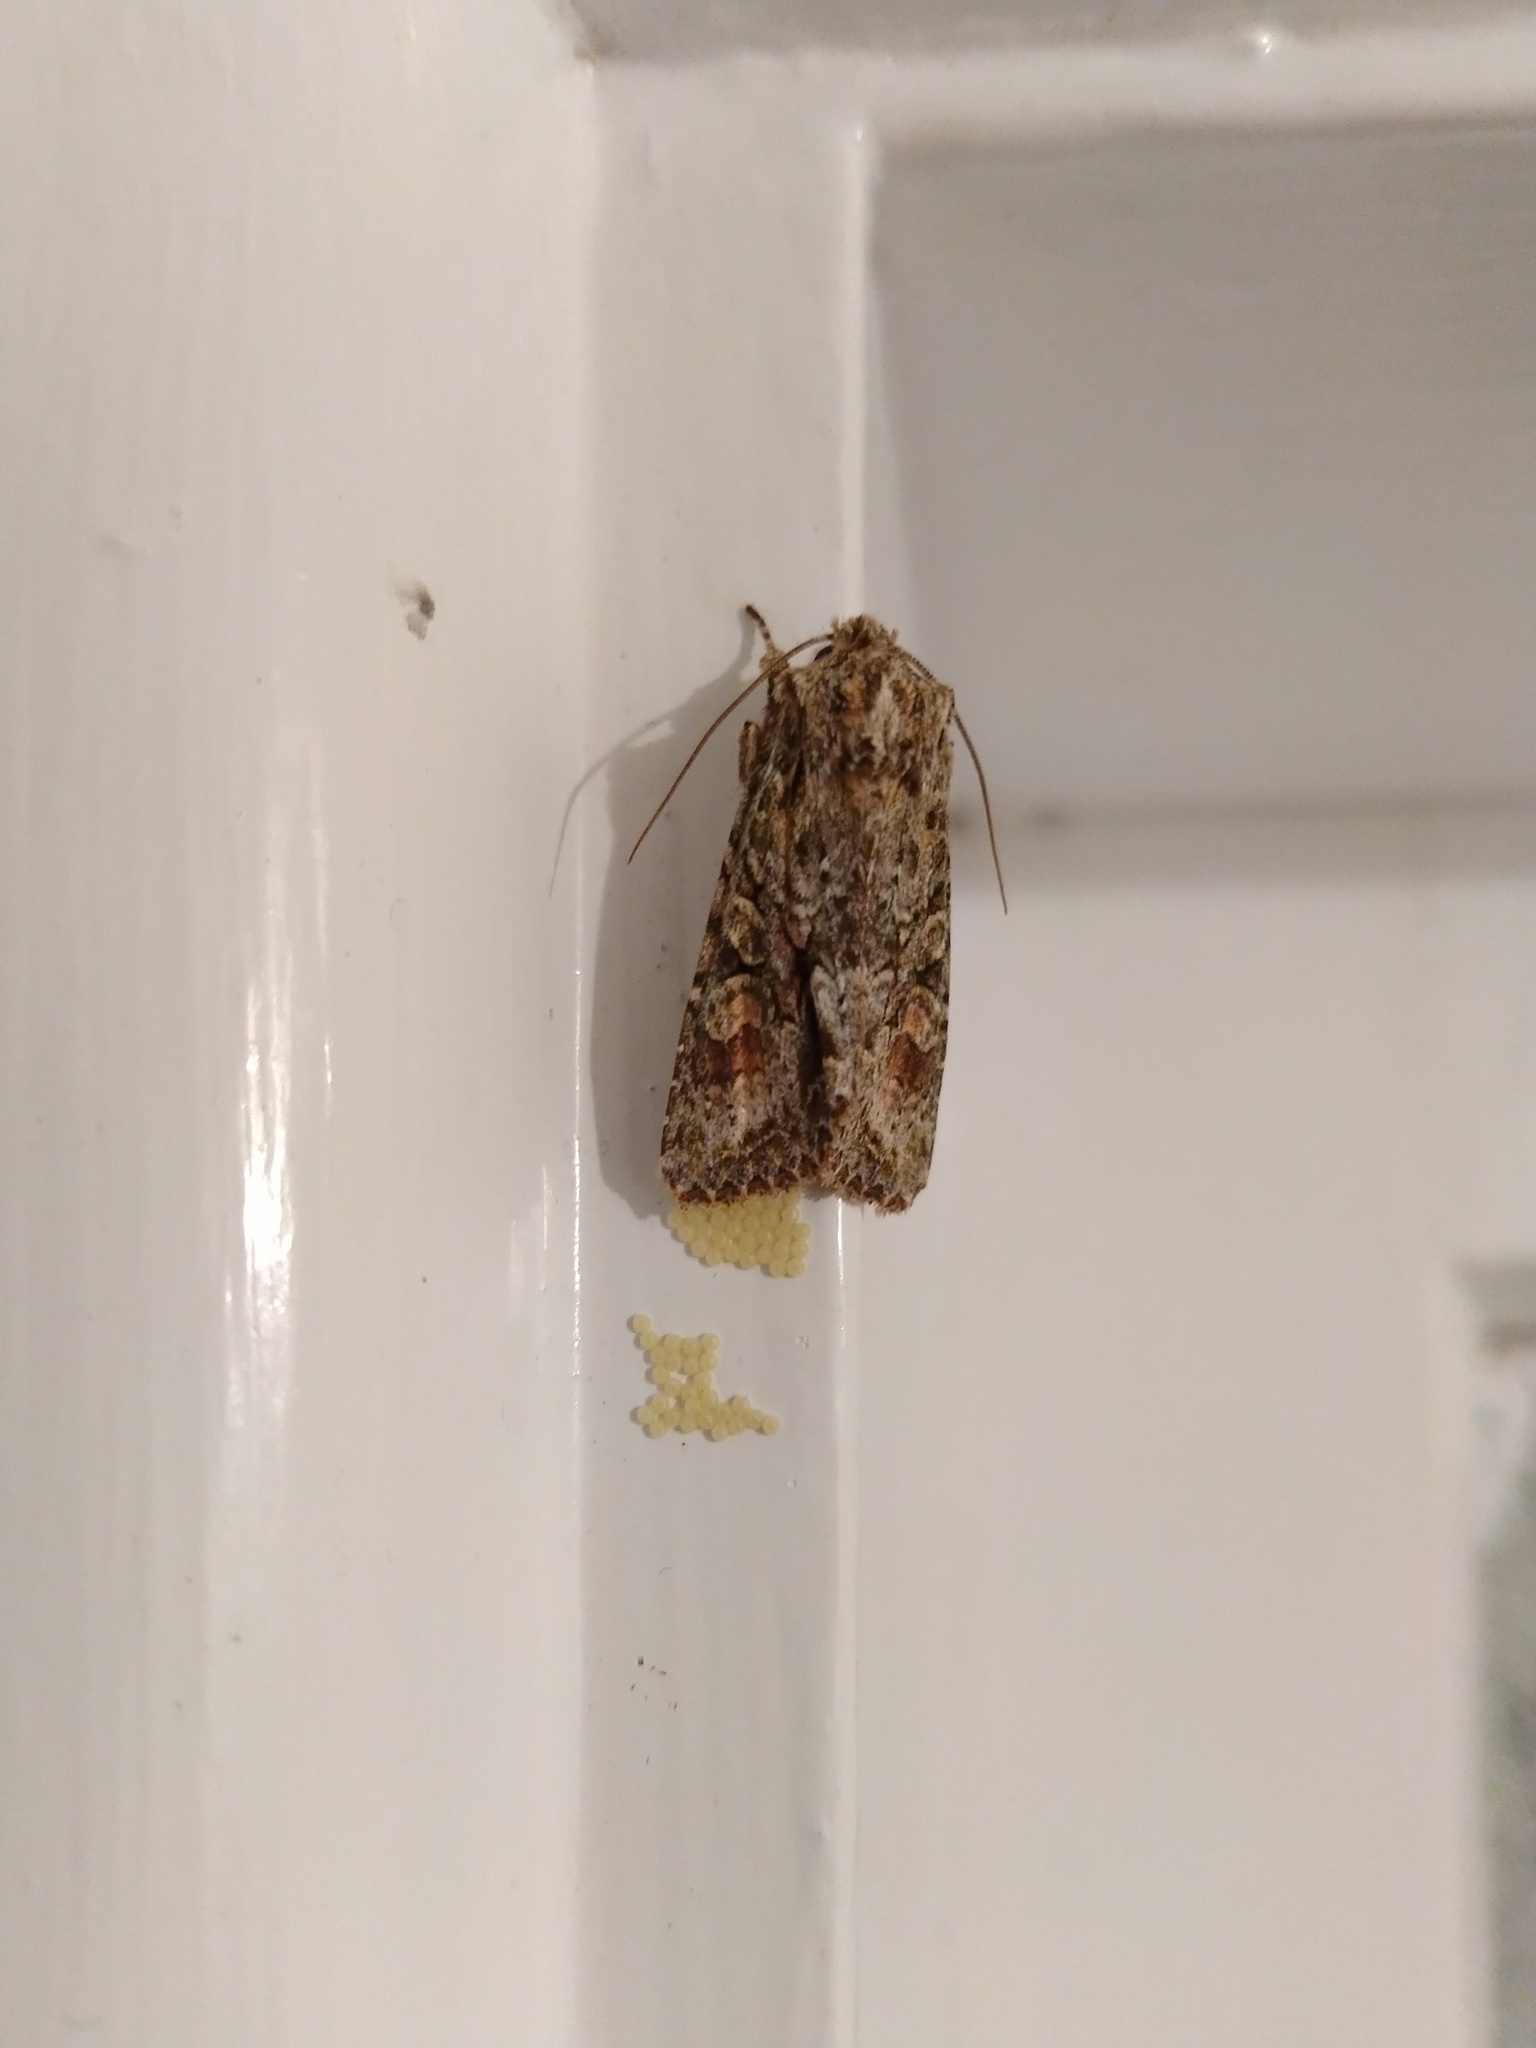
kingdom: Animalia
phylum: Arthropoda
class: Insecta
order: Lepidoptera
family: Noctuidae
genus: Ichneutica
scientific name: Ichneutica mutans
